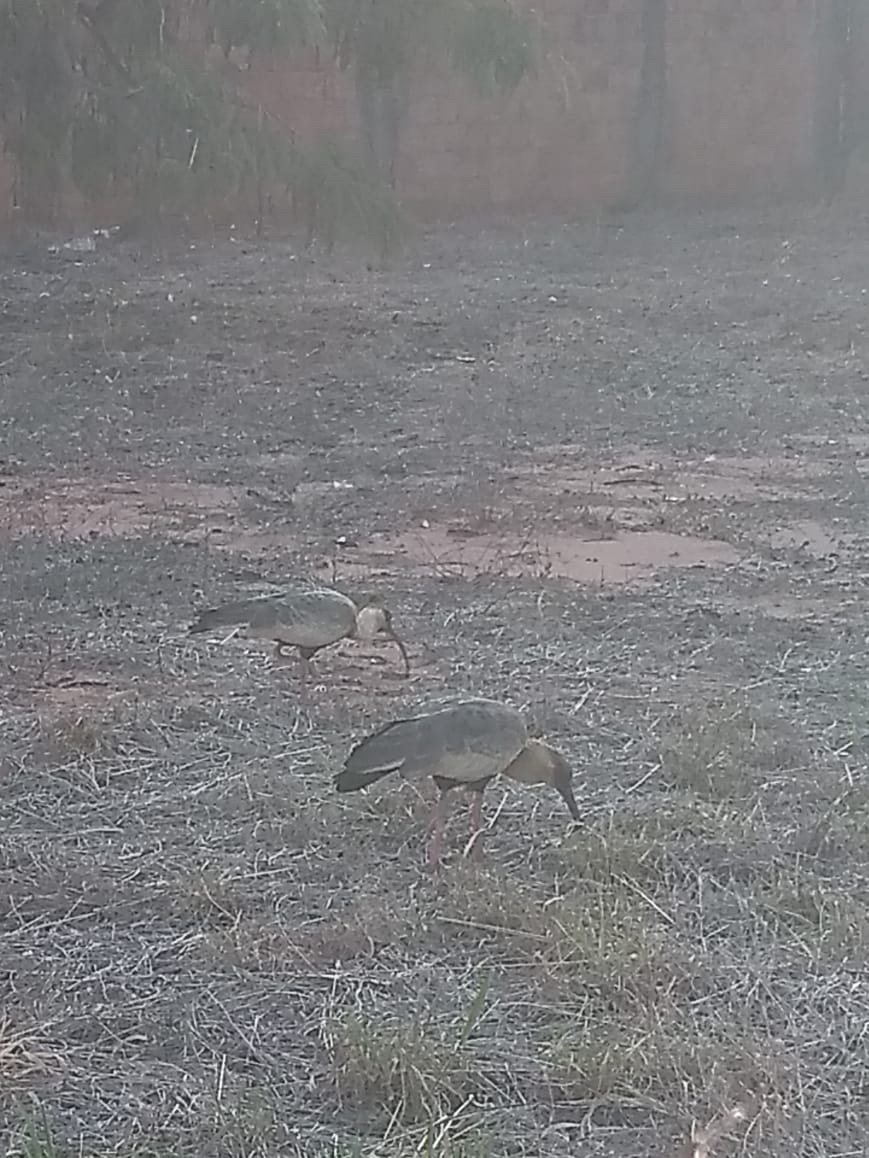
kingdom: Animalia
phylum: Chordata
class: Aves
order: Pelecaniformes
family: Threskiornithidae
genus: Theristicus
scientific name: Theristicus caudatus
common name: Buff-necked ibis
